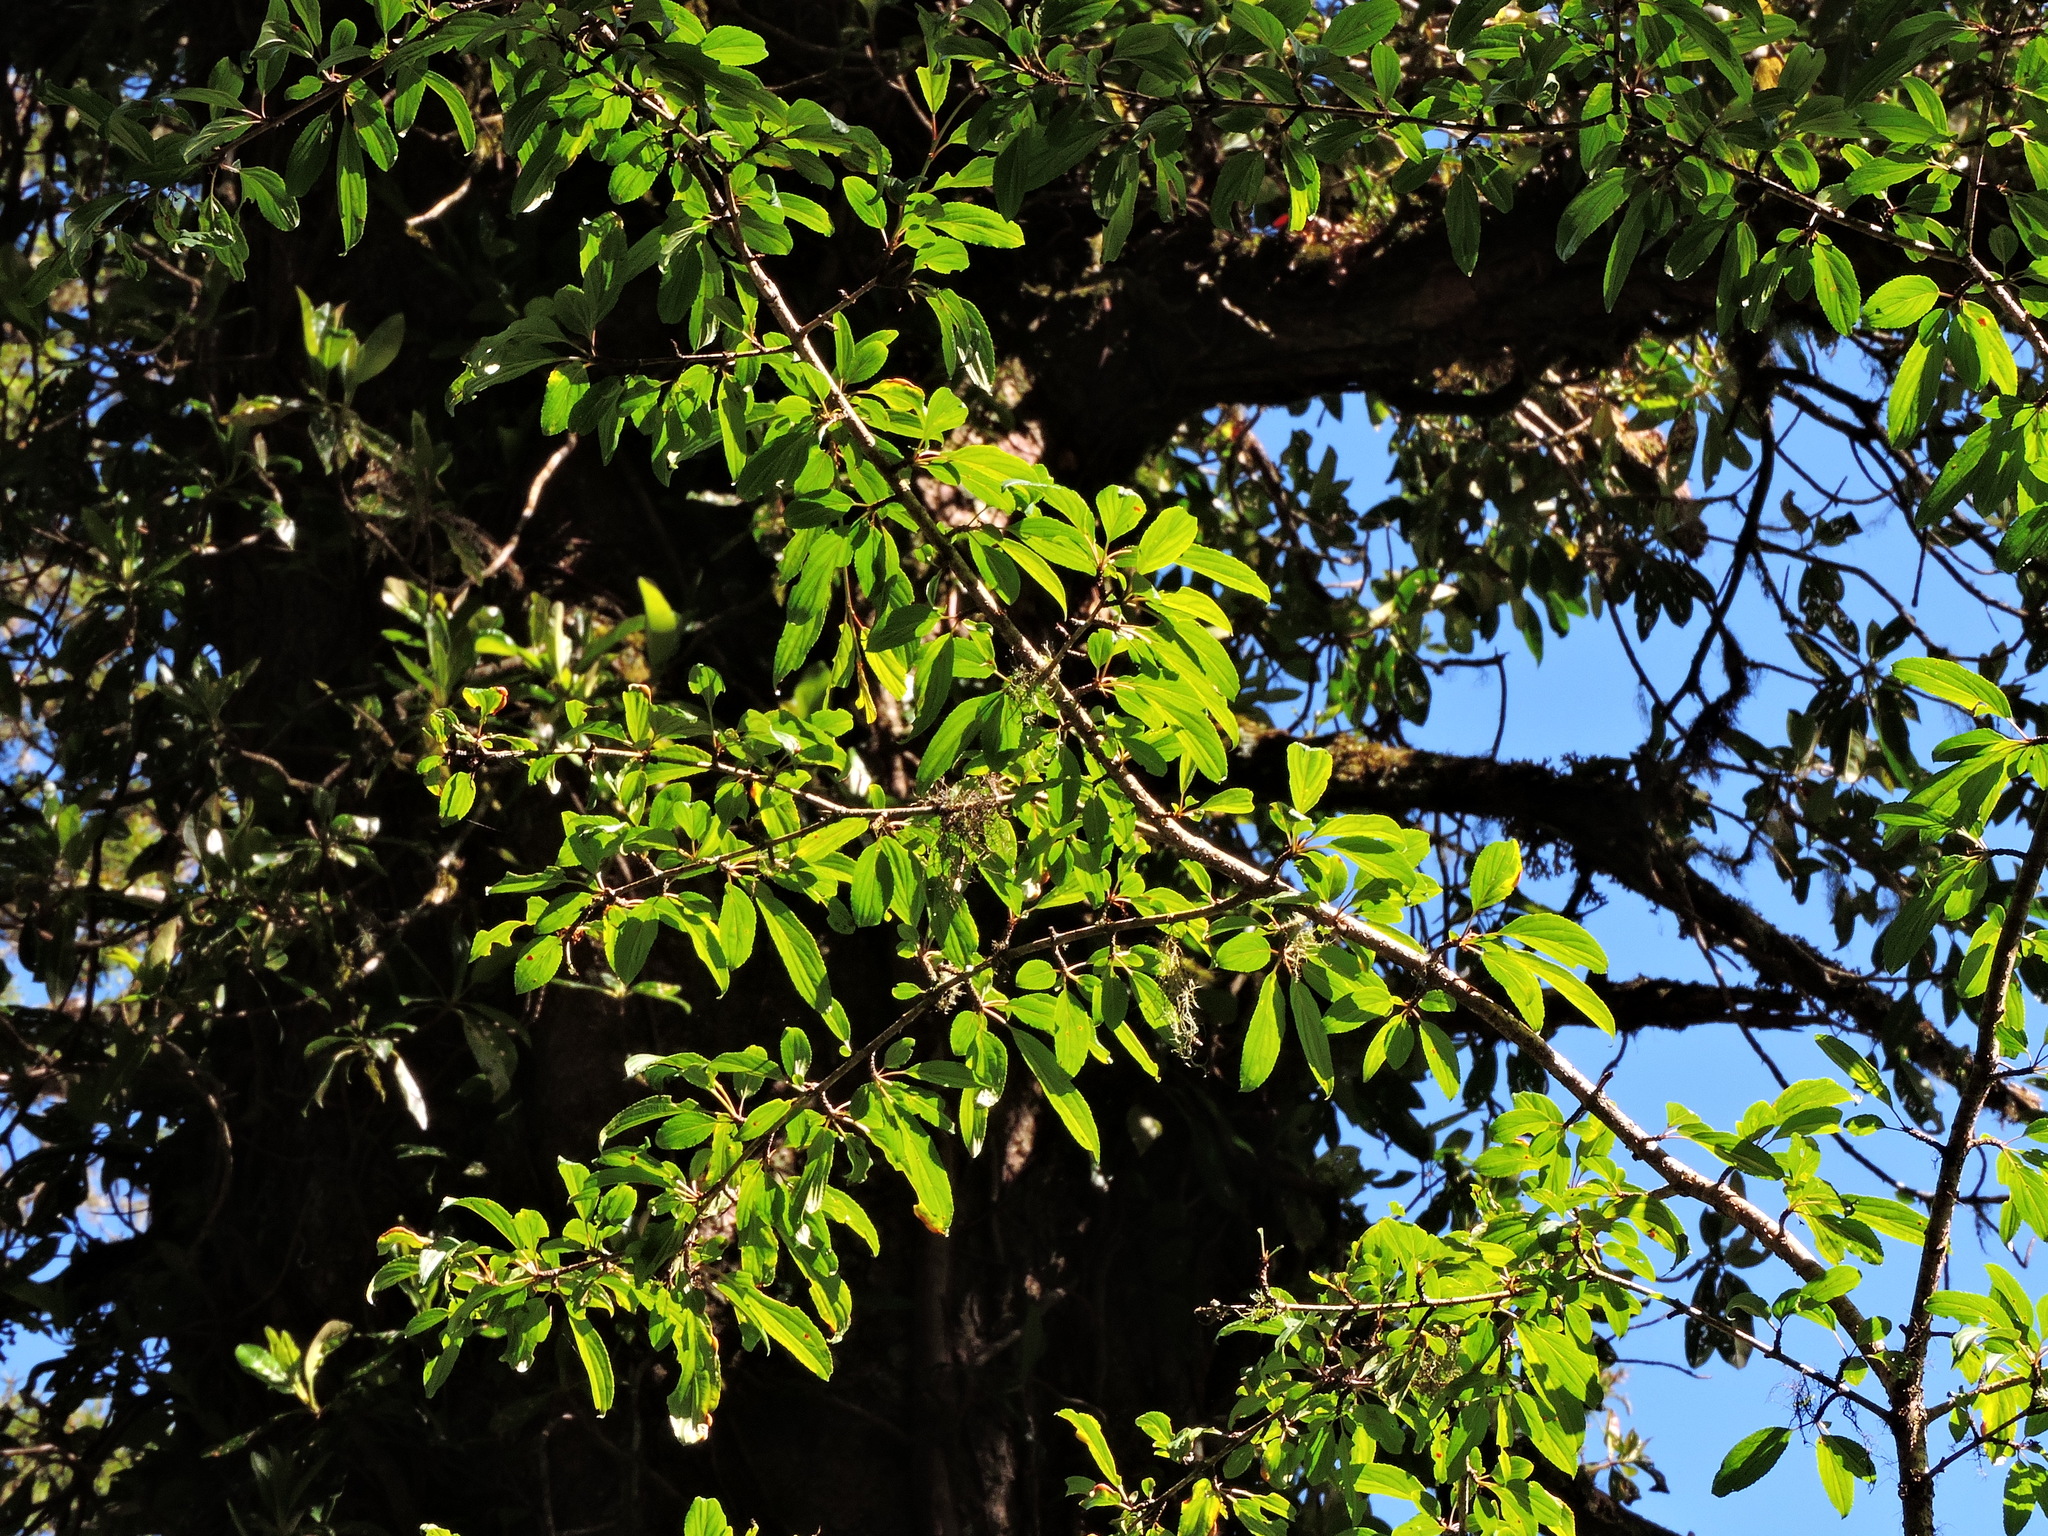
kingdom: Plantae
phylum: Tracheophyta
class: Magnoliopsida
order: Rosales
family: Rhamnaceae
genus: Rhamnus
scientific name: Rhamnus pilushanensis
